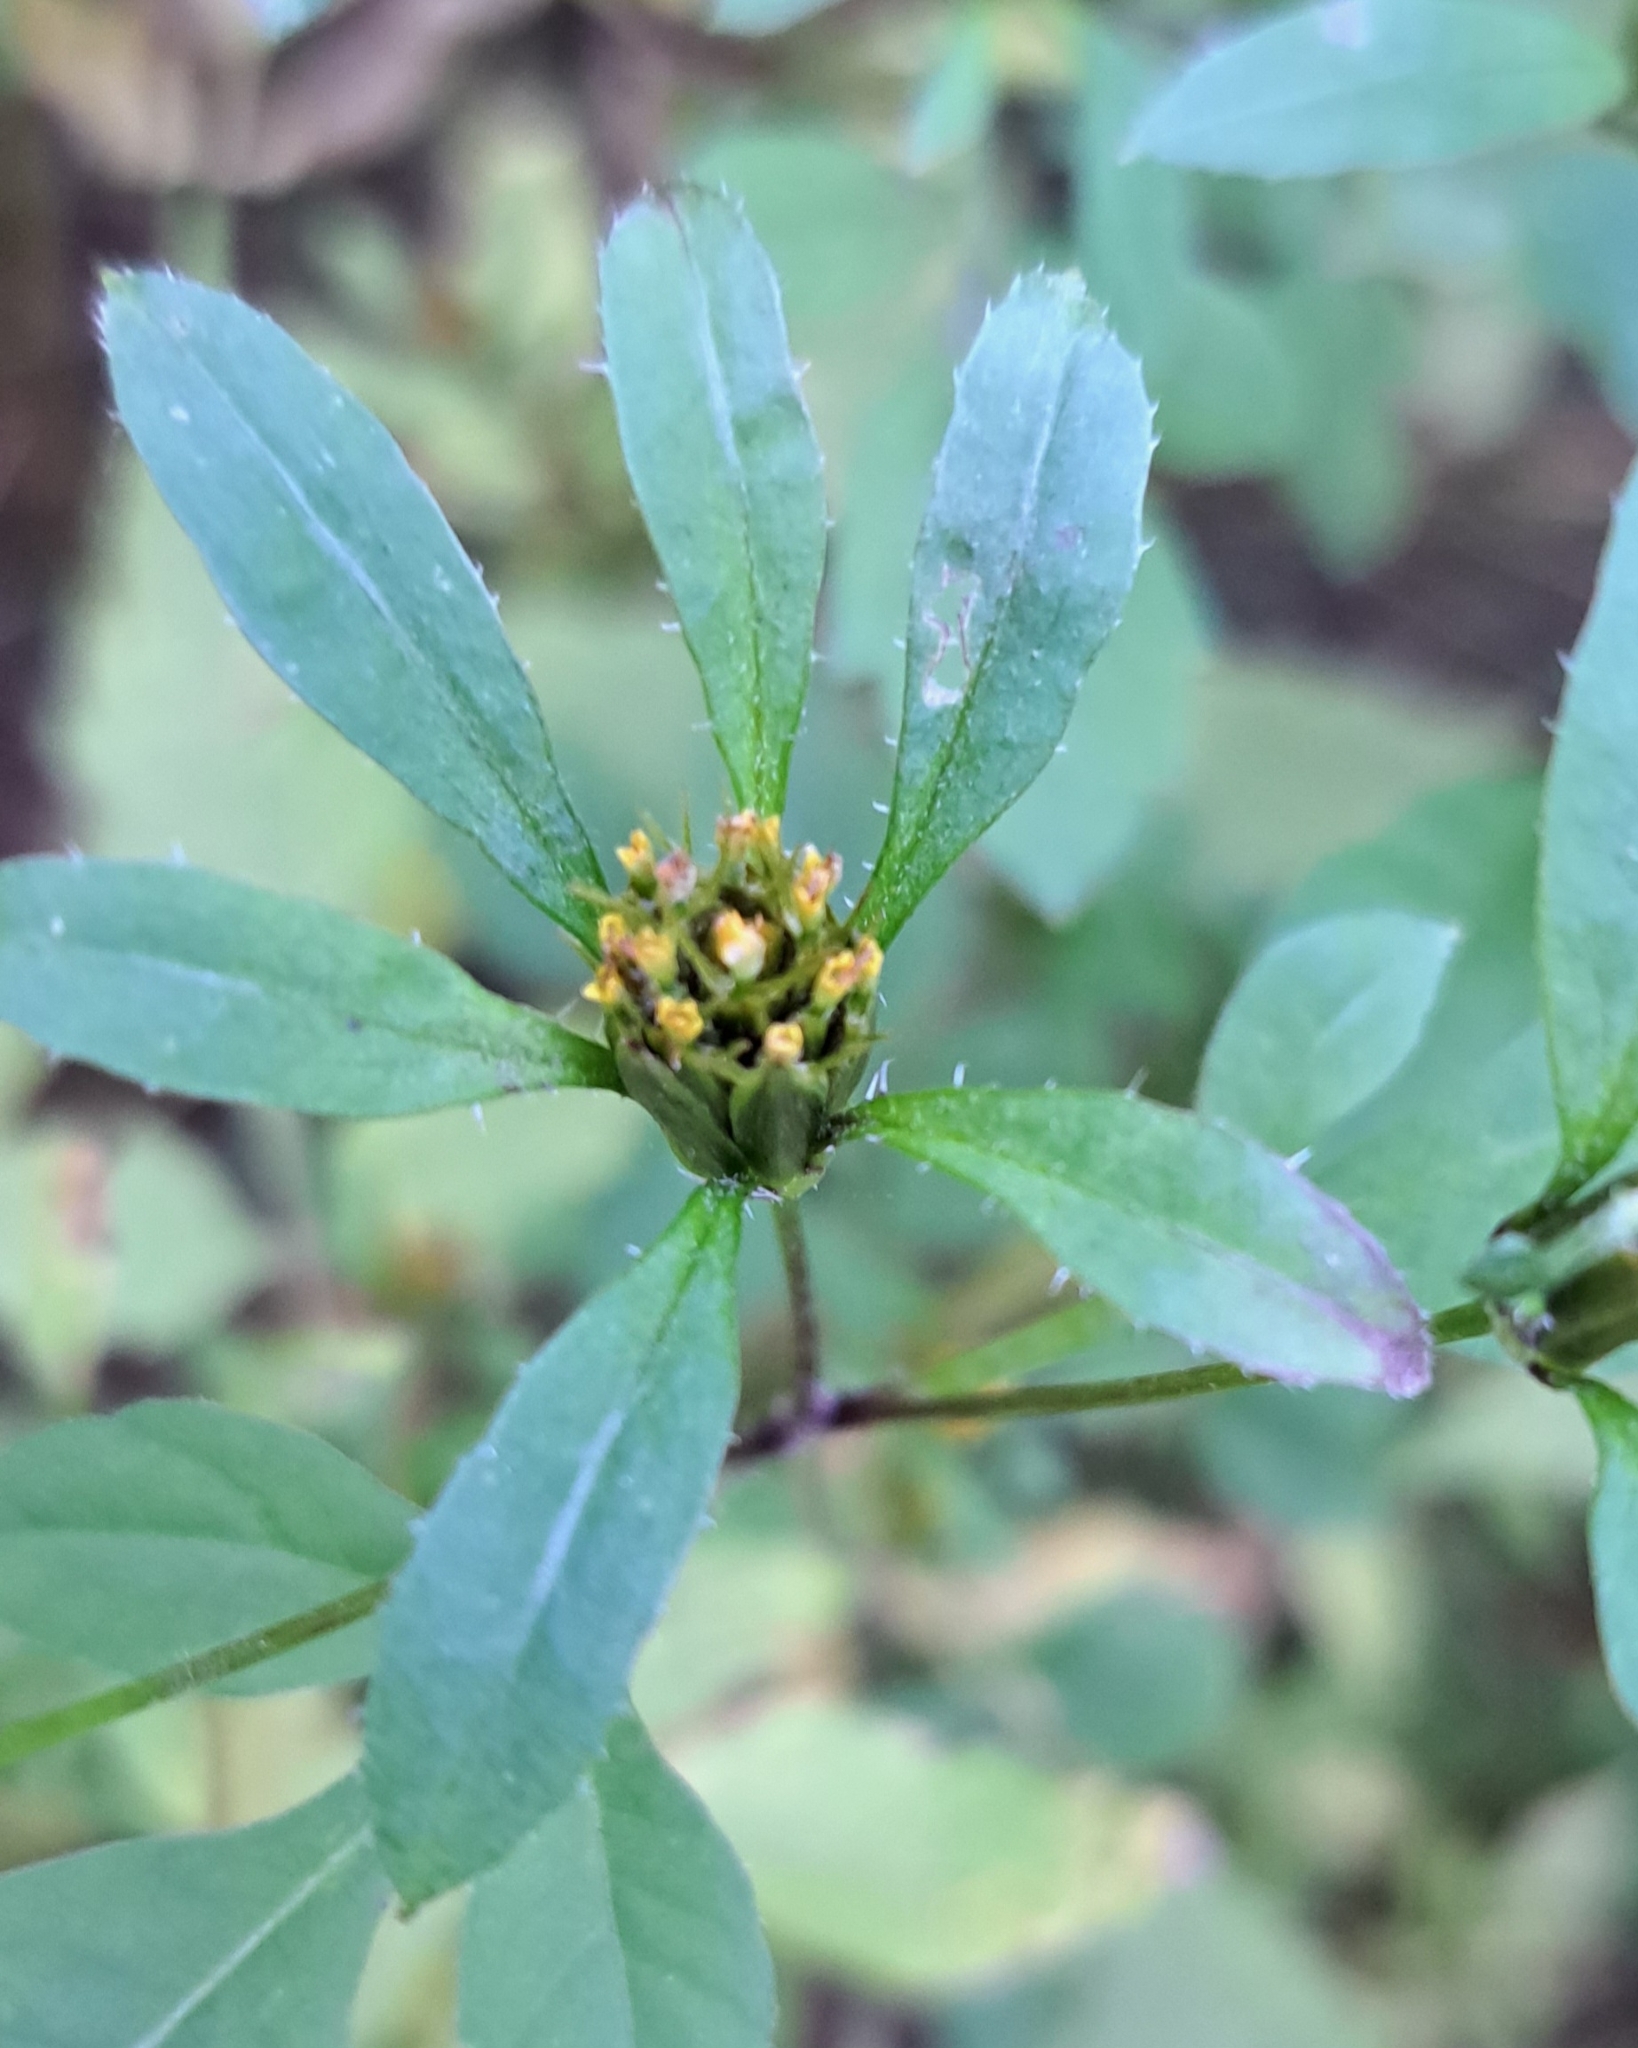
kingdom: Plantae
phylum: Tracheophyta
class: Magnoliopsida
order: Asterales
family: Asteraceae
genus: Bidens
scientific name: Bidens frondosa
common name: Beggarticks
